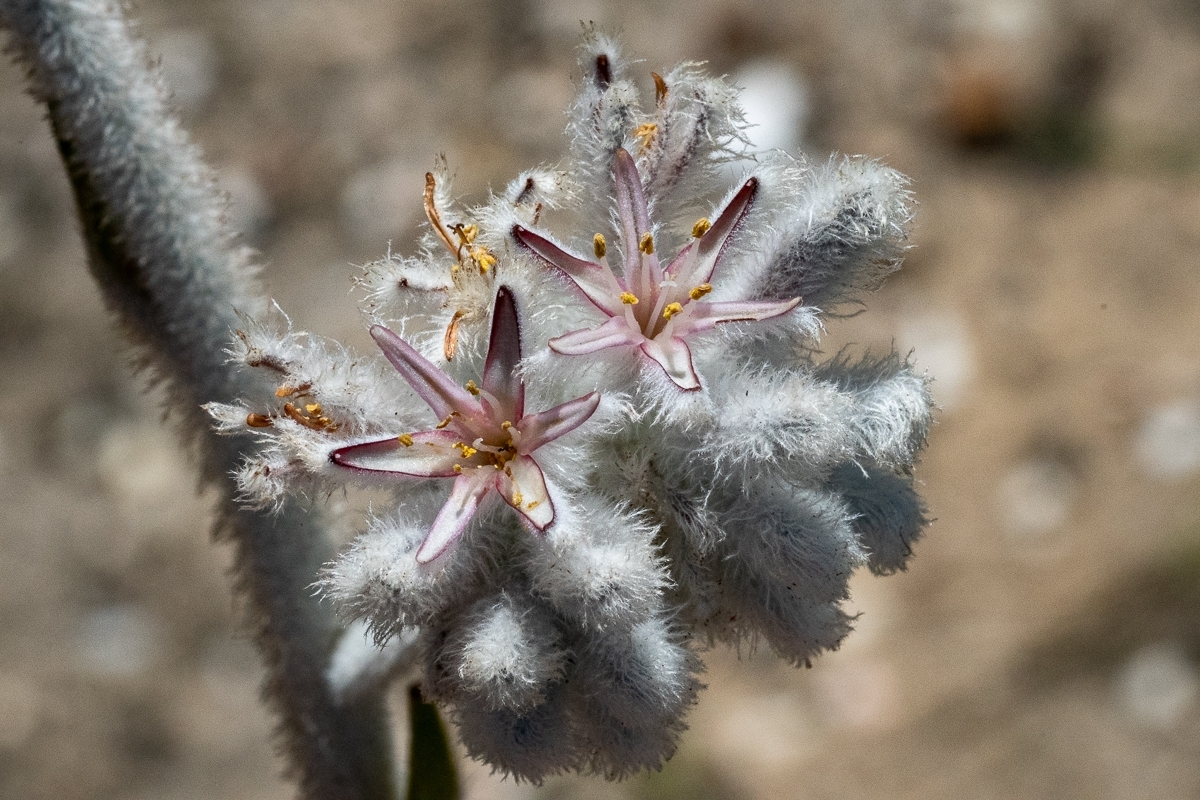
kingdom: Plantae
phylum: Tracheophyta
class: Liliopsida
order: Asparagales
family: Lanariaceae
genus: Lanaria
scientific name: Lanaria lanata
